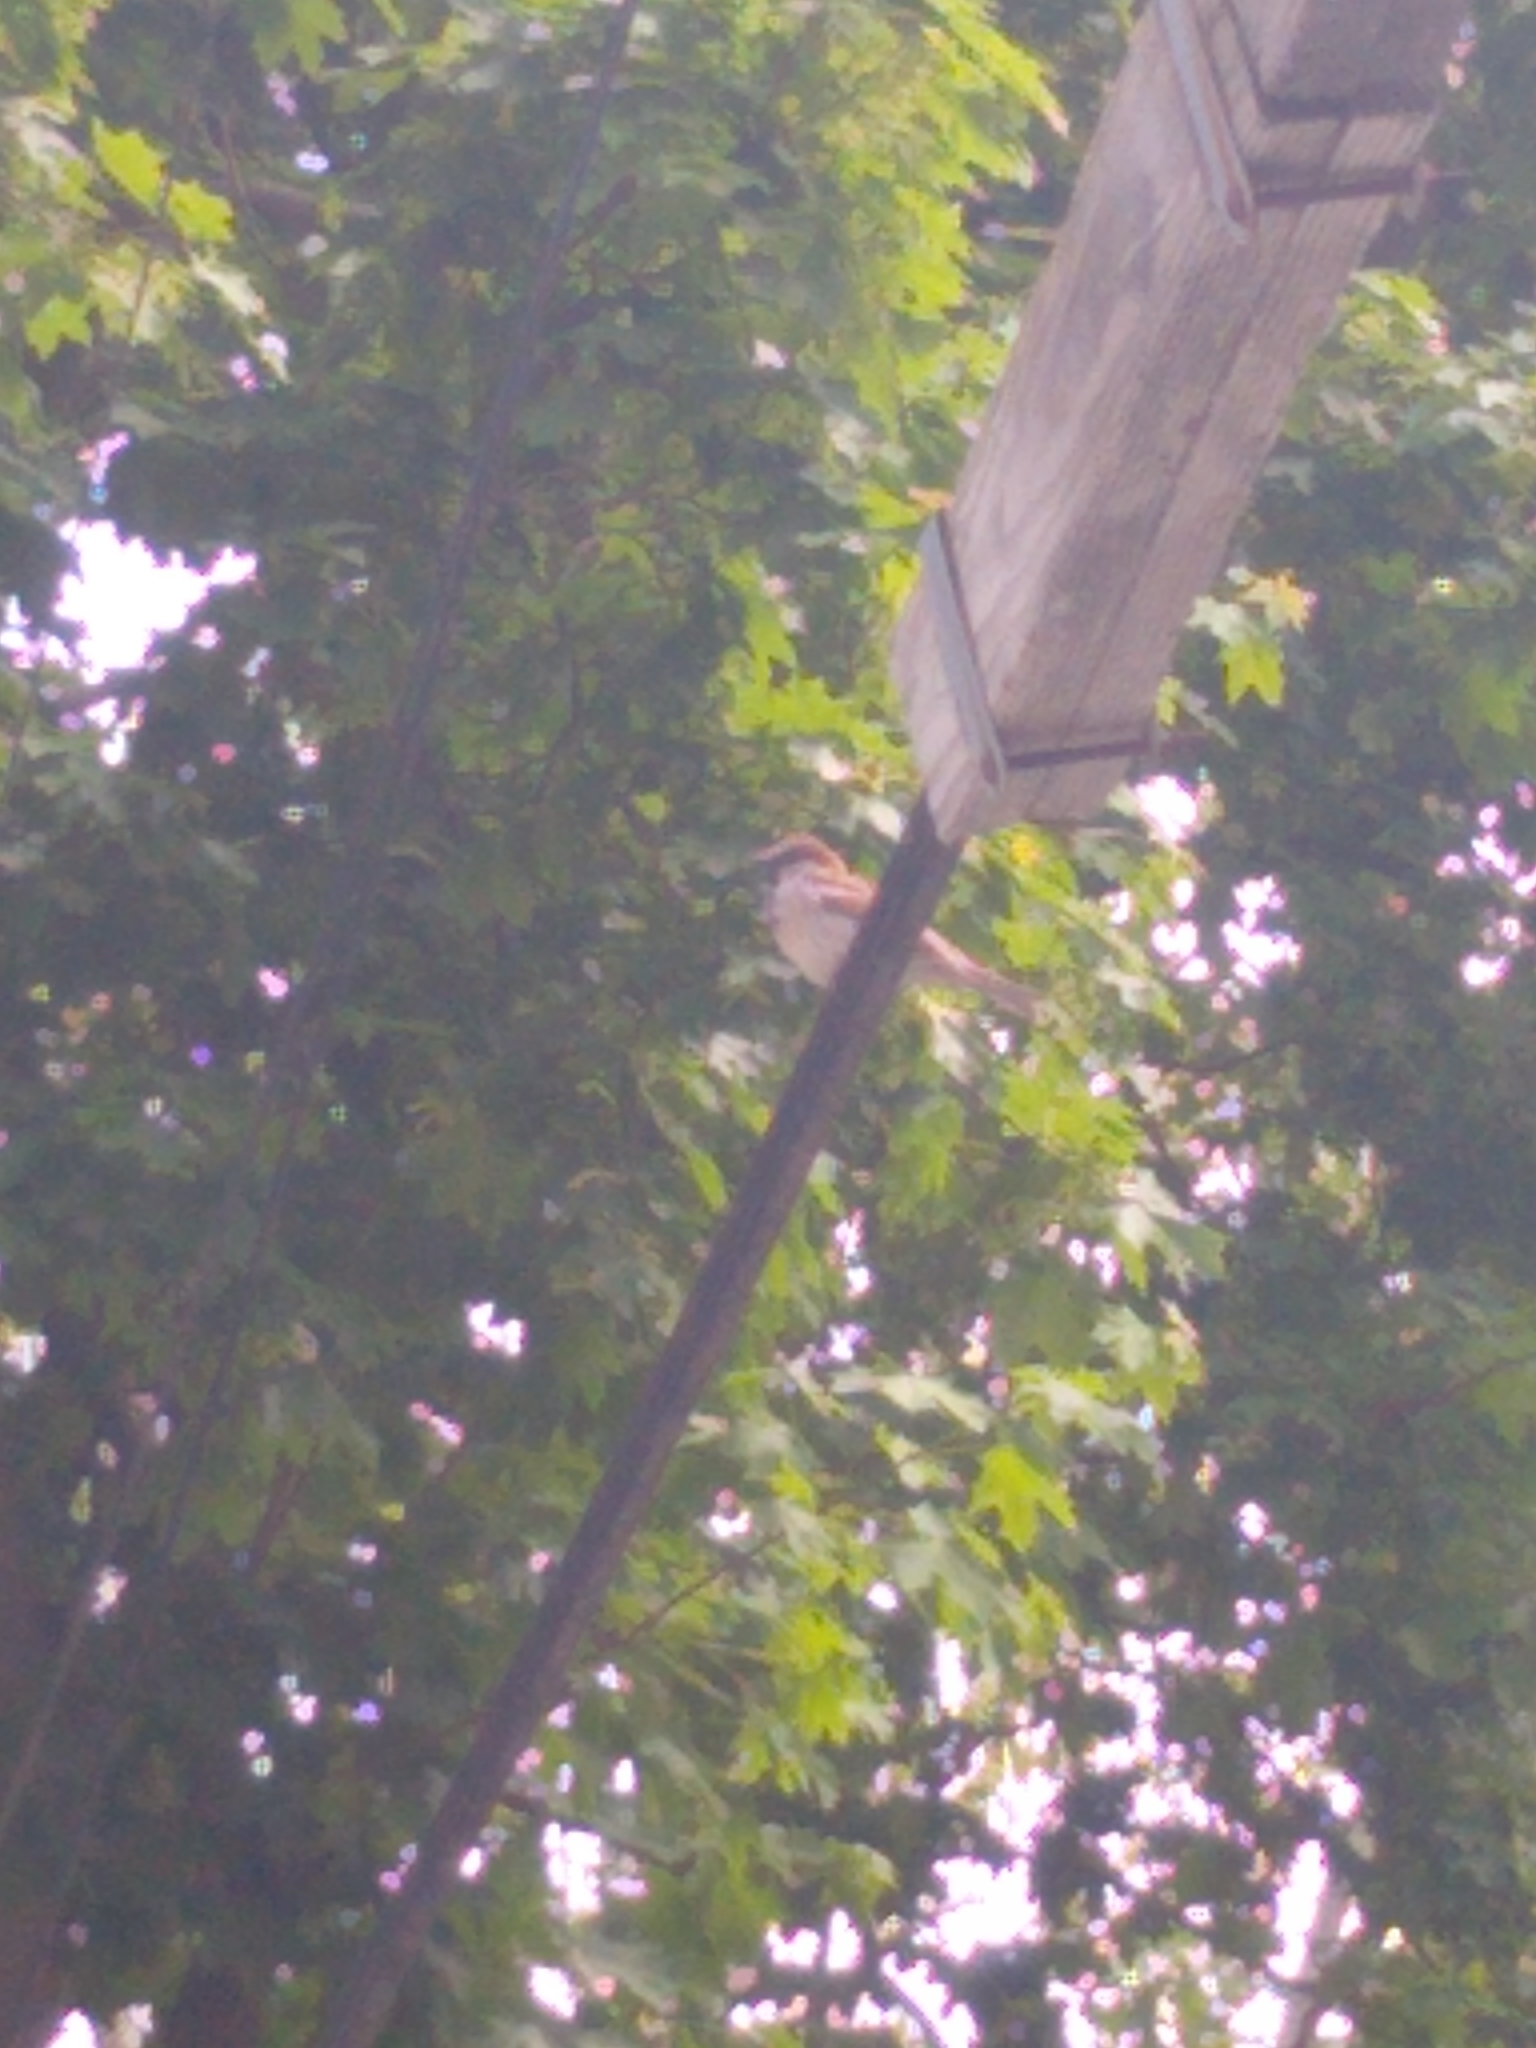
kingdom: Animalia
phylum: Chordata
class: Aves
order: Passeriformes
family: Passeridae
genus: Passer
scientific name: Passer domesticus
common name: House sparrow
